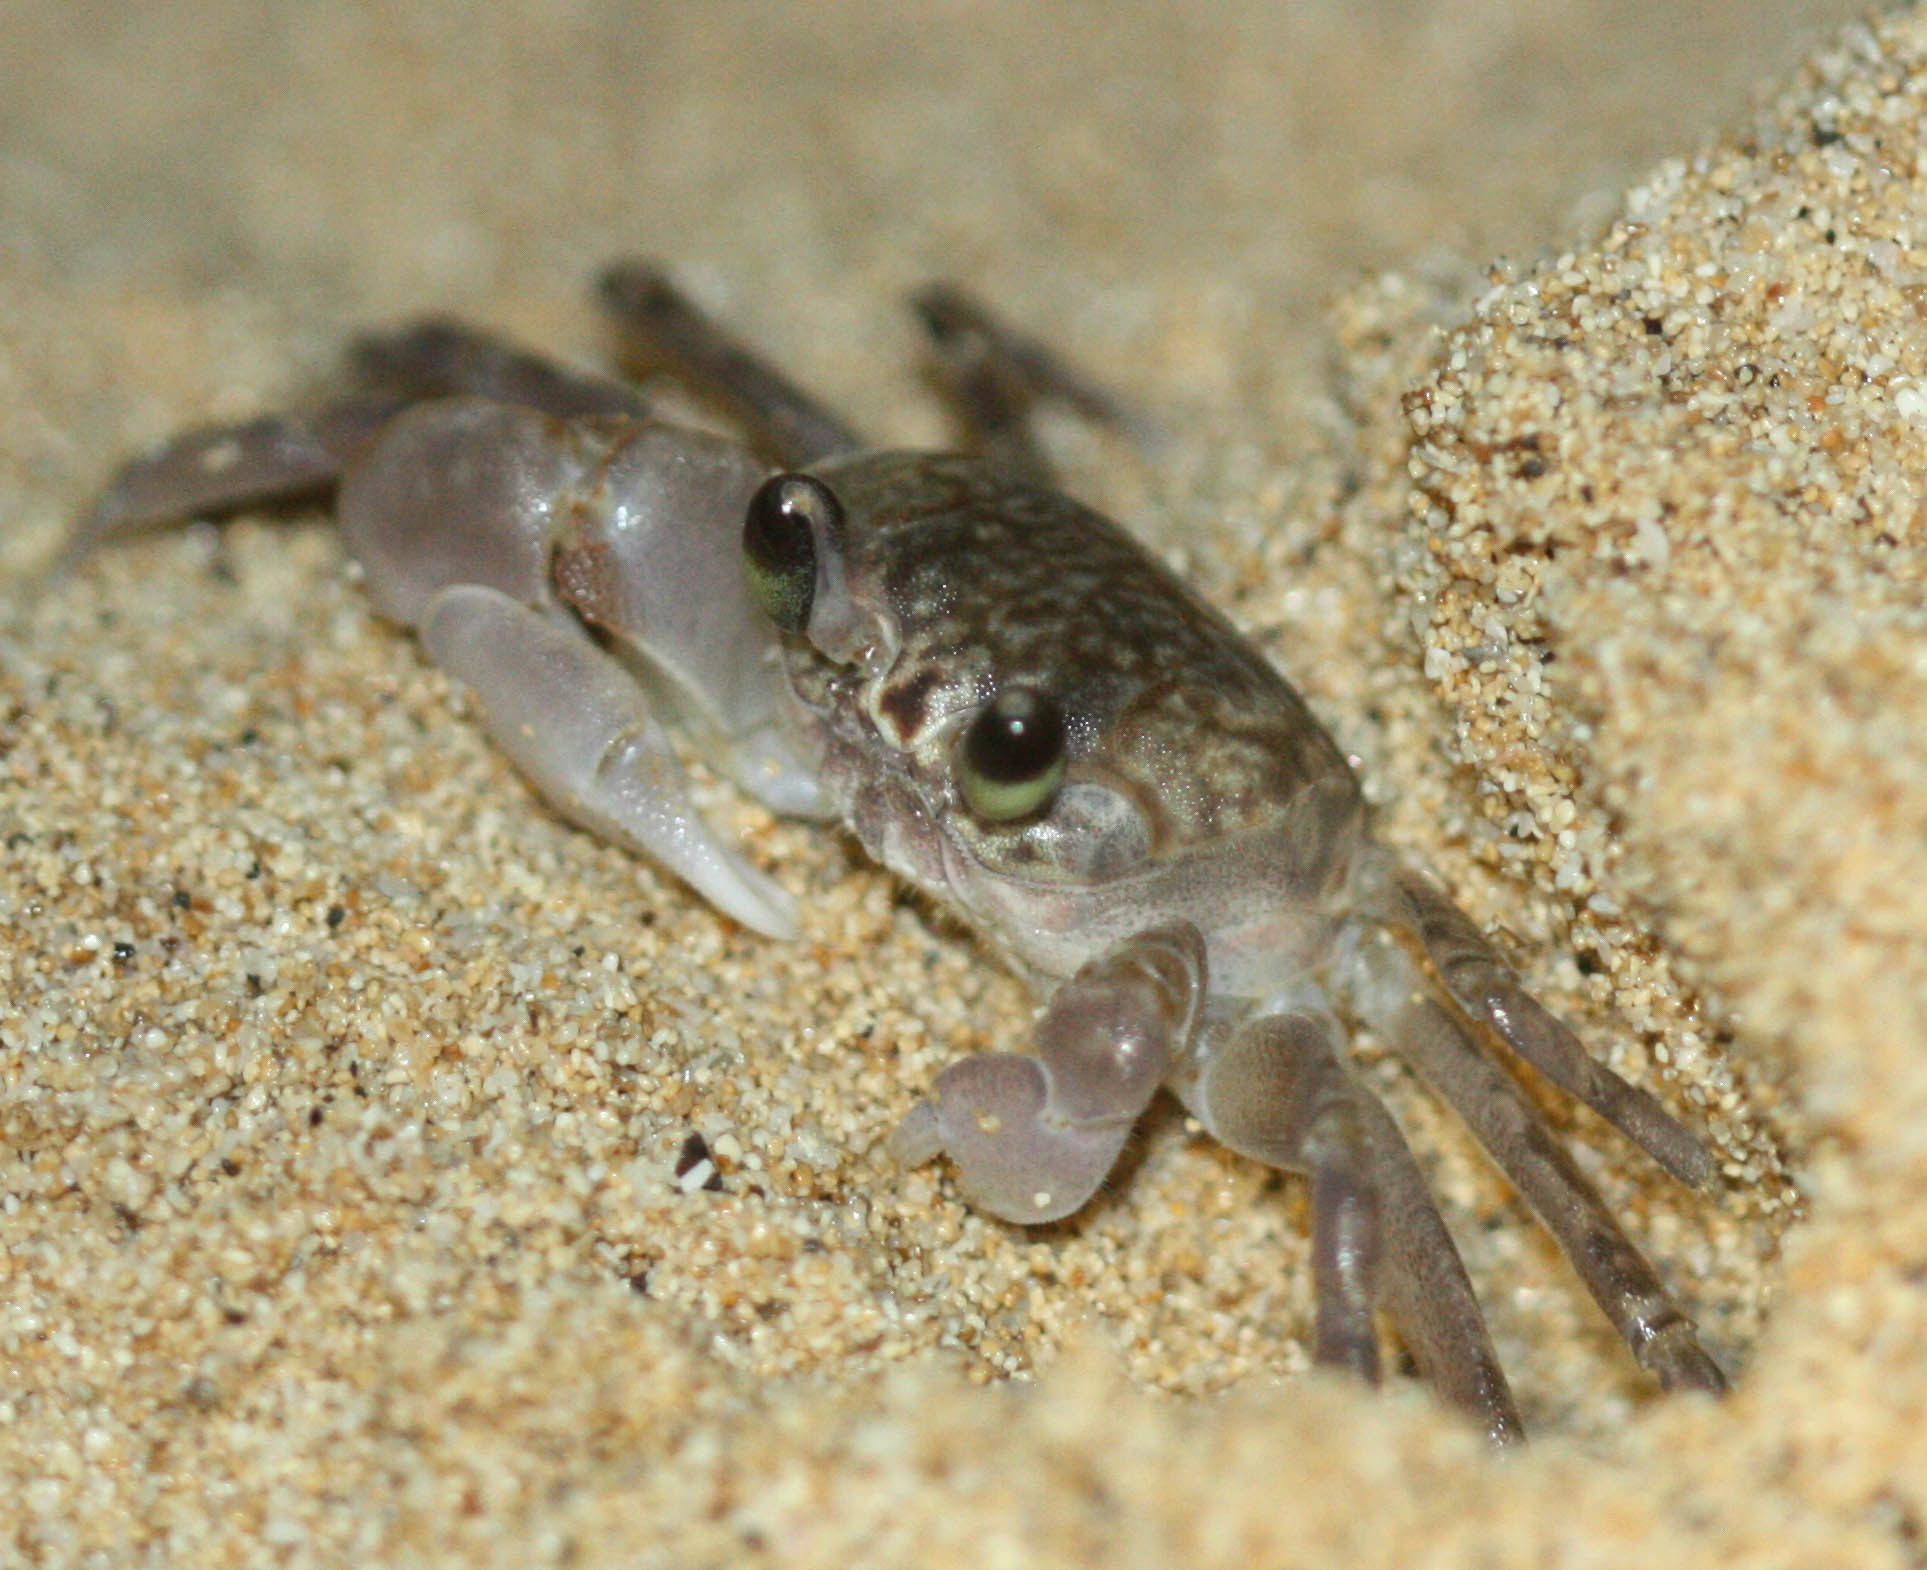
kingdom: Animalia
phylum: Arthropoda
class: Malacostraca
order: Decapoda
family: Ocypodidae
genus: Ocypode
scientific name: Ocypode pallidula
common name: Pallid ghost crab
